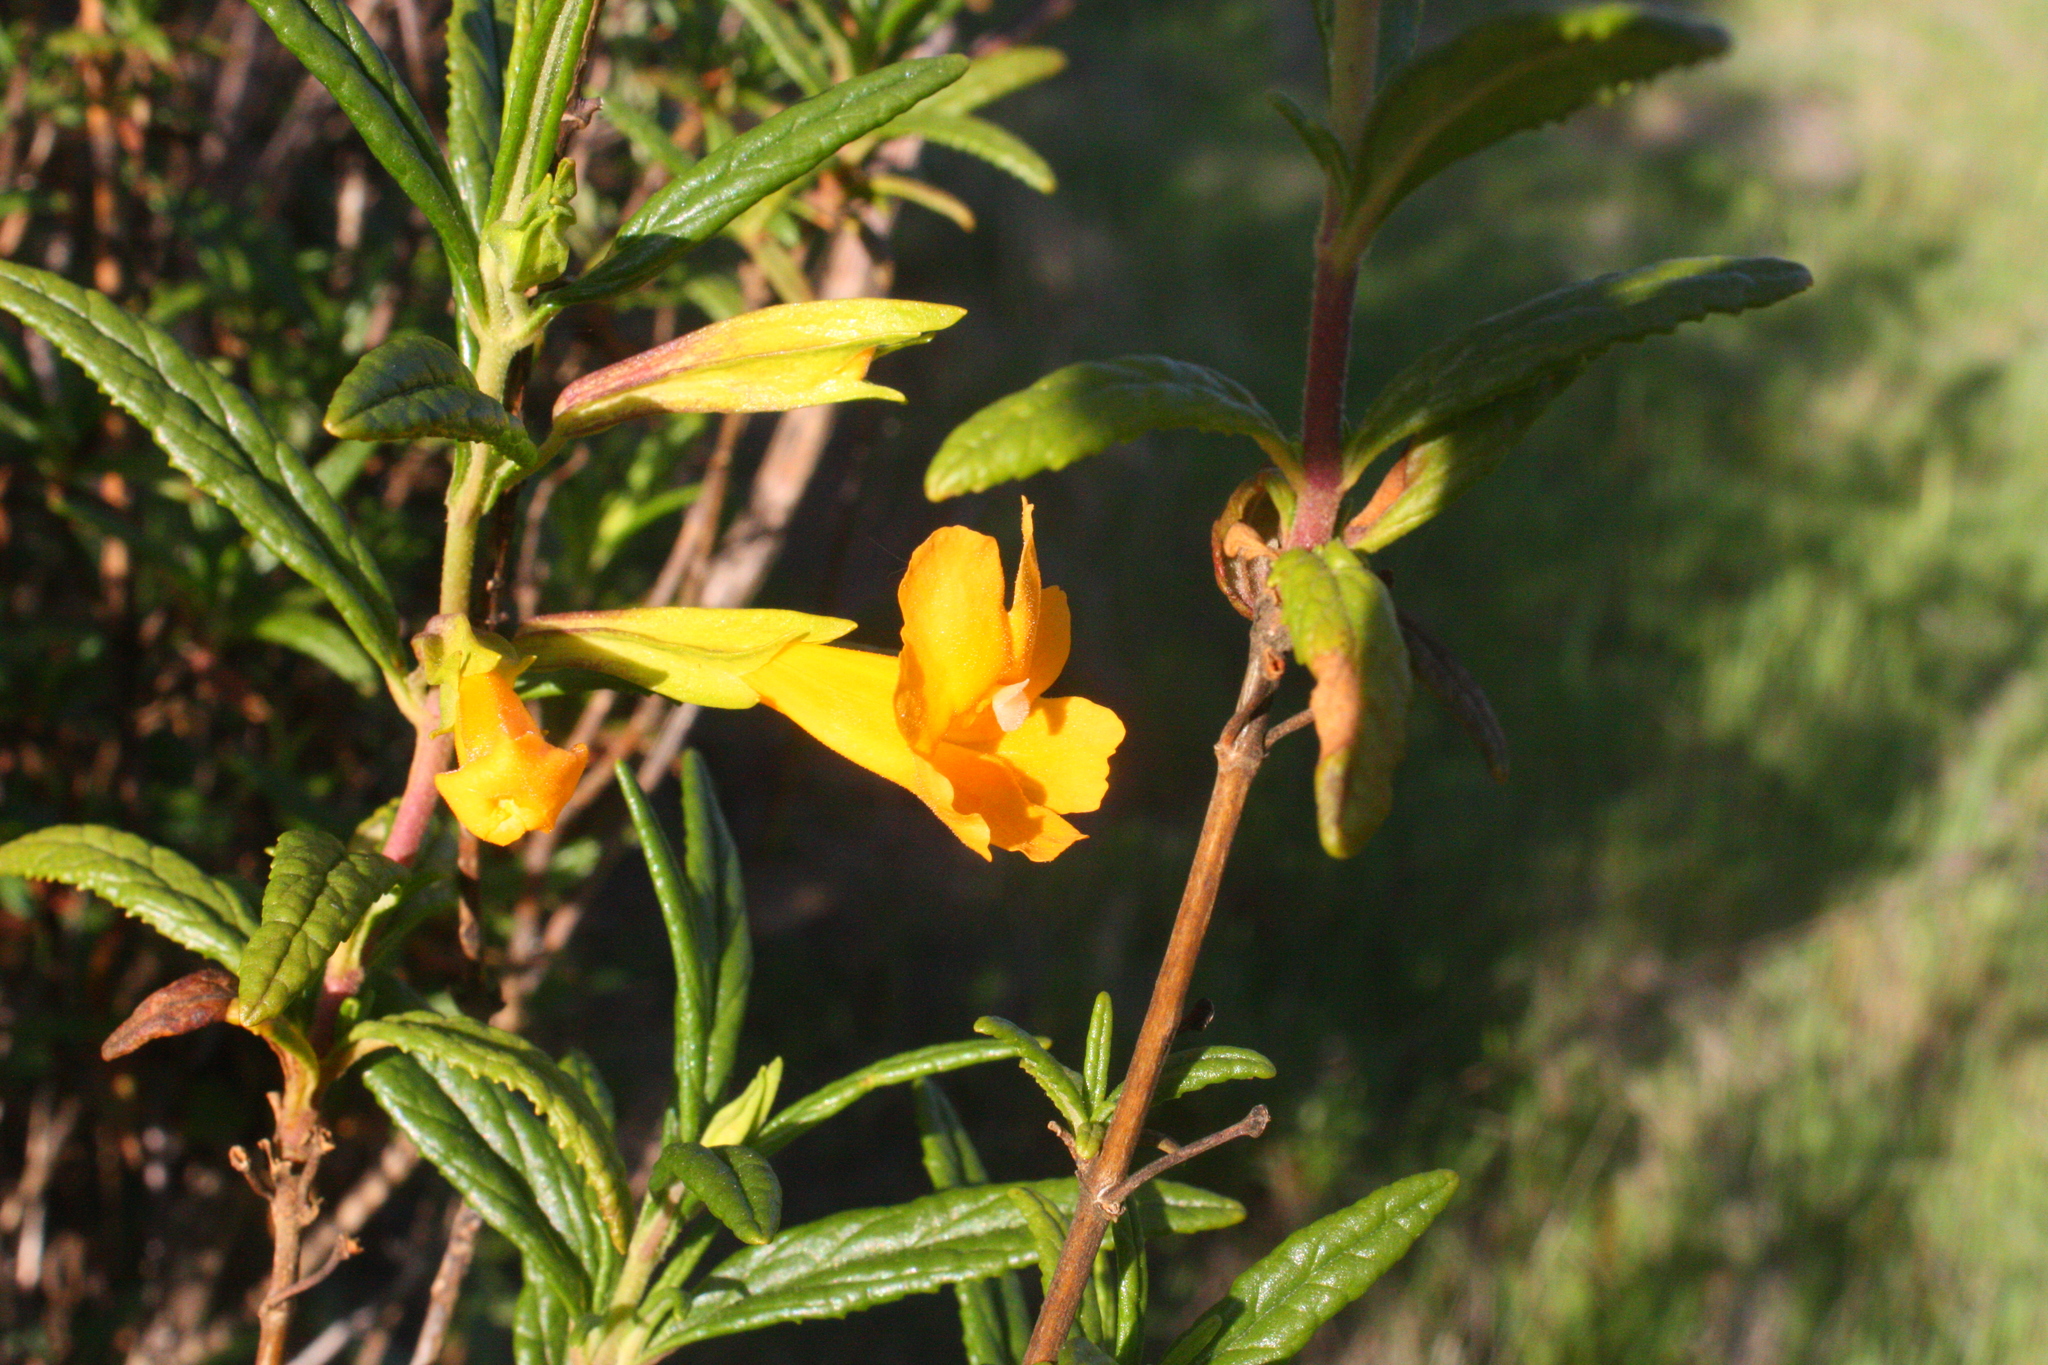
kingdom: Plantae
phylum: Tracheophyta
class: Magnoliopsida
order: Lamiales
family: Phrymaceae
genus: Diplacus
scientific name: Diplacus aurantiacus
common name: Bush monkey-flower
